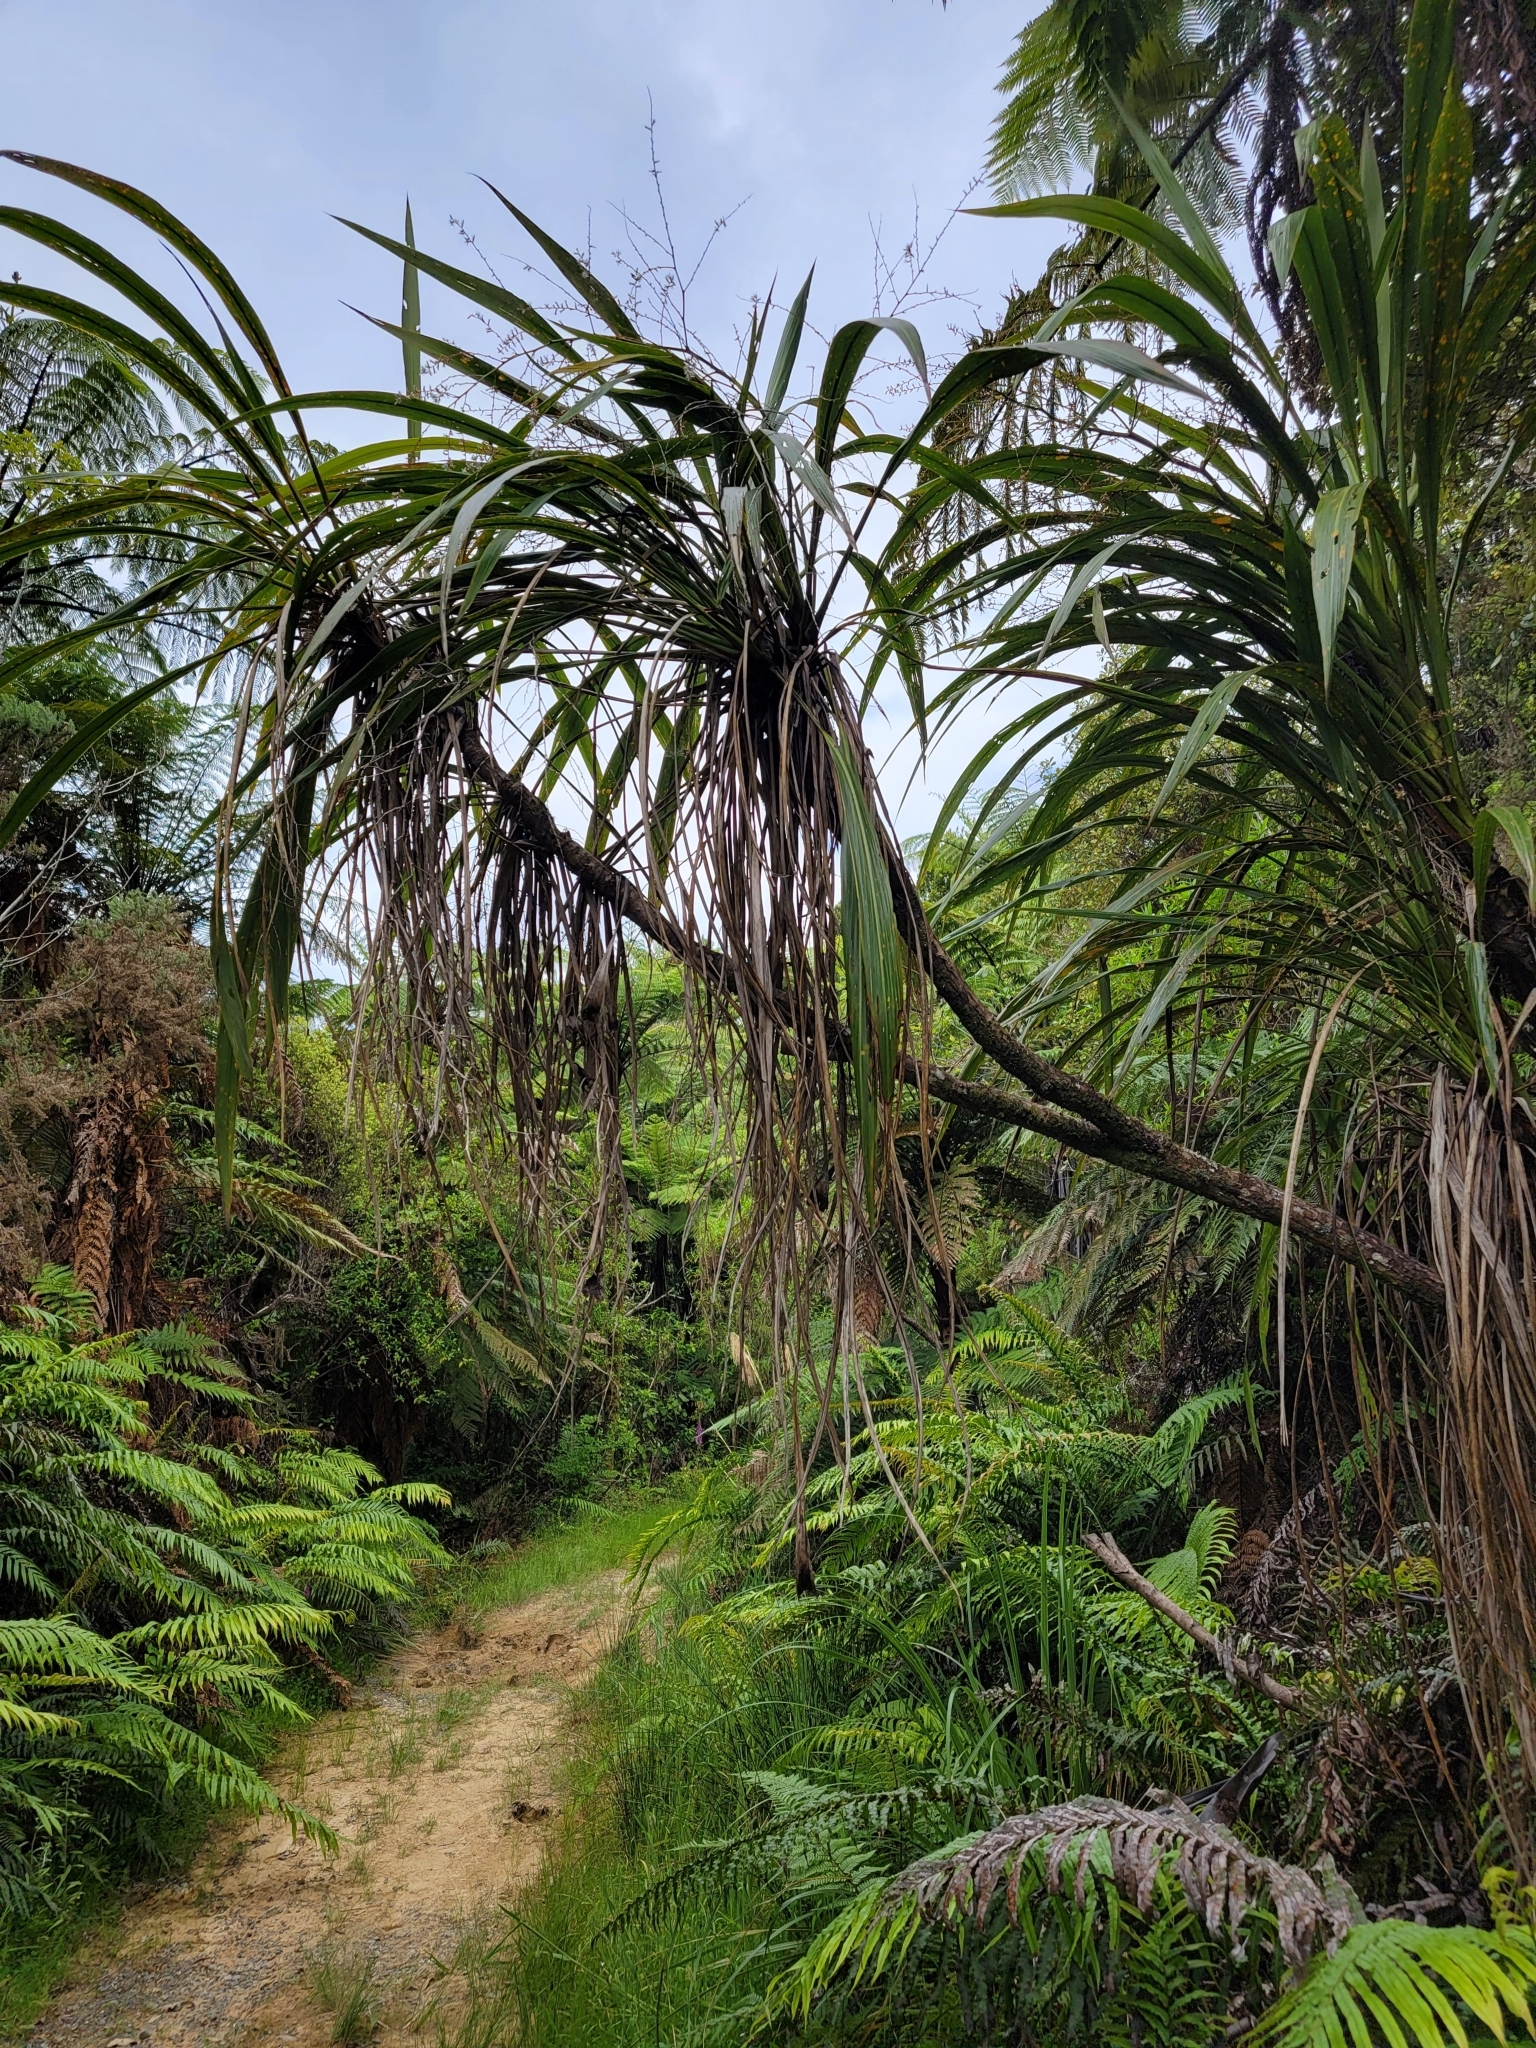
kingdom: Plantae
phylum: Tracheophyta
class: Liliopsida
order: Asparagales
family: Asparagaceae
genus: Cordyline
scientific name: Cordyline banksii
